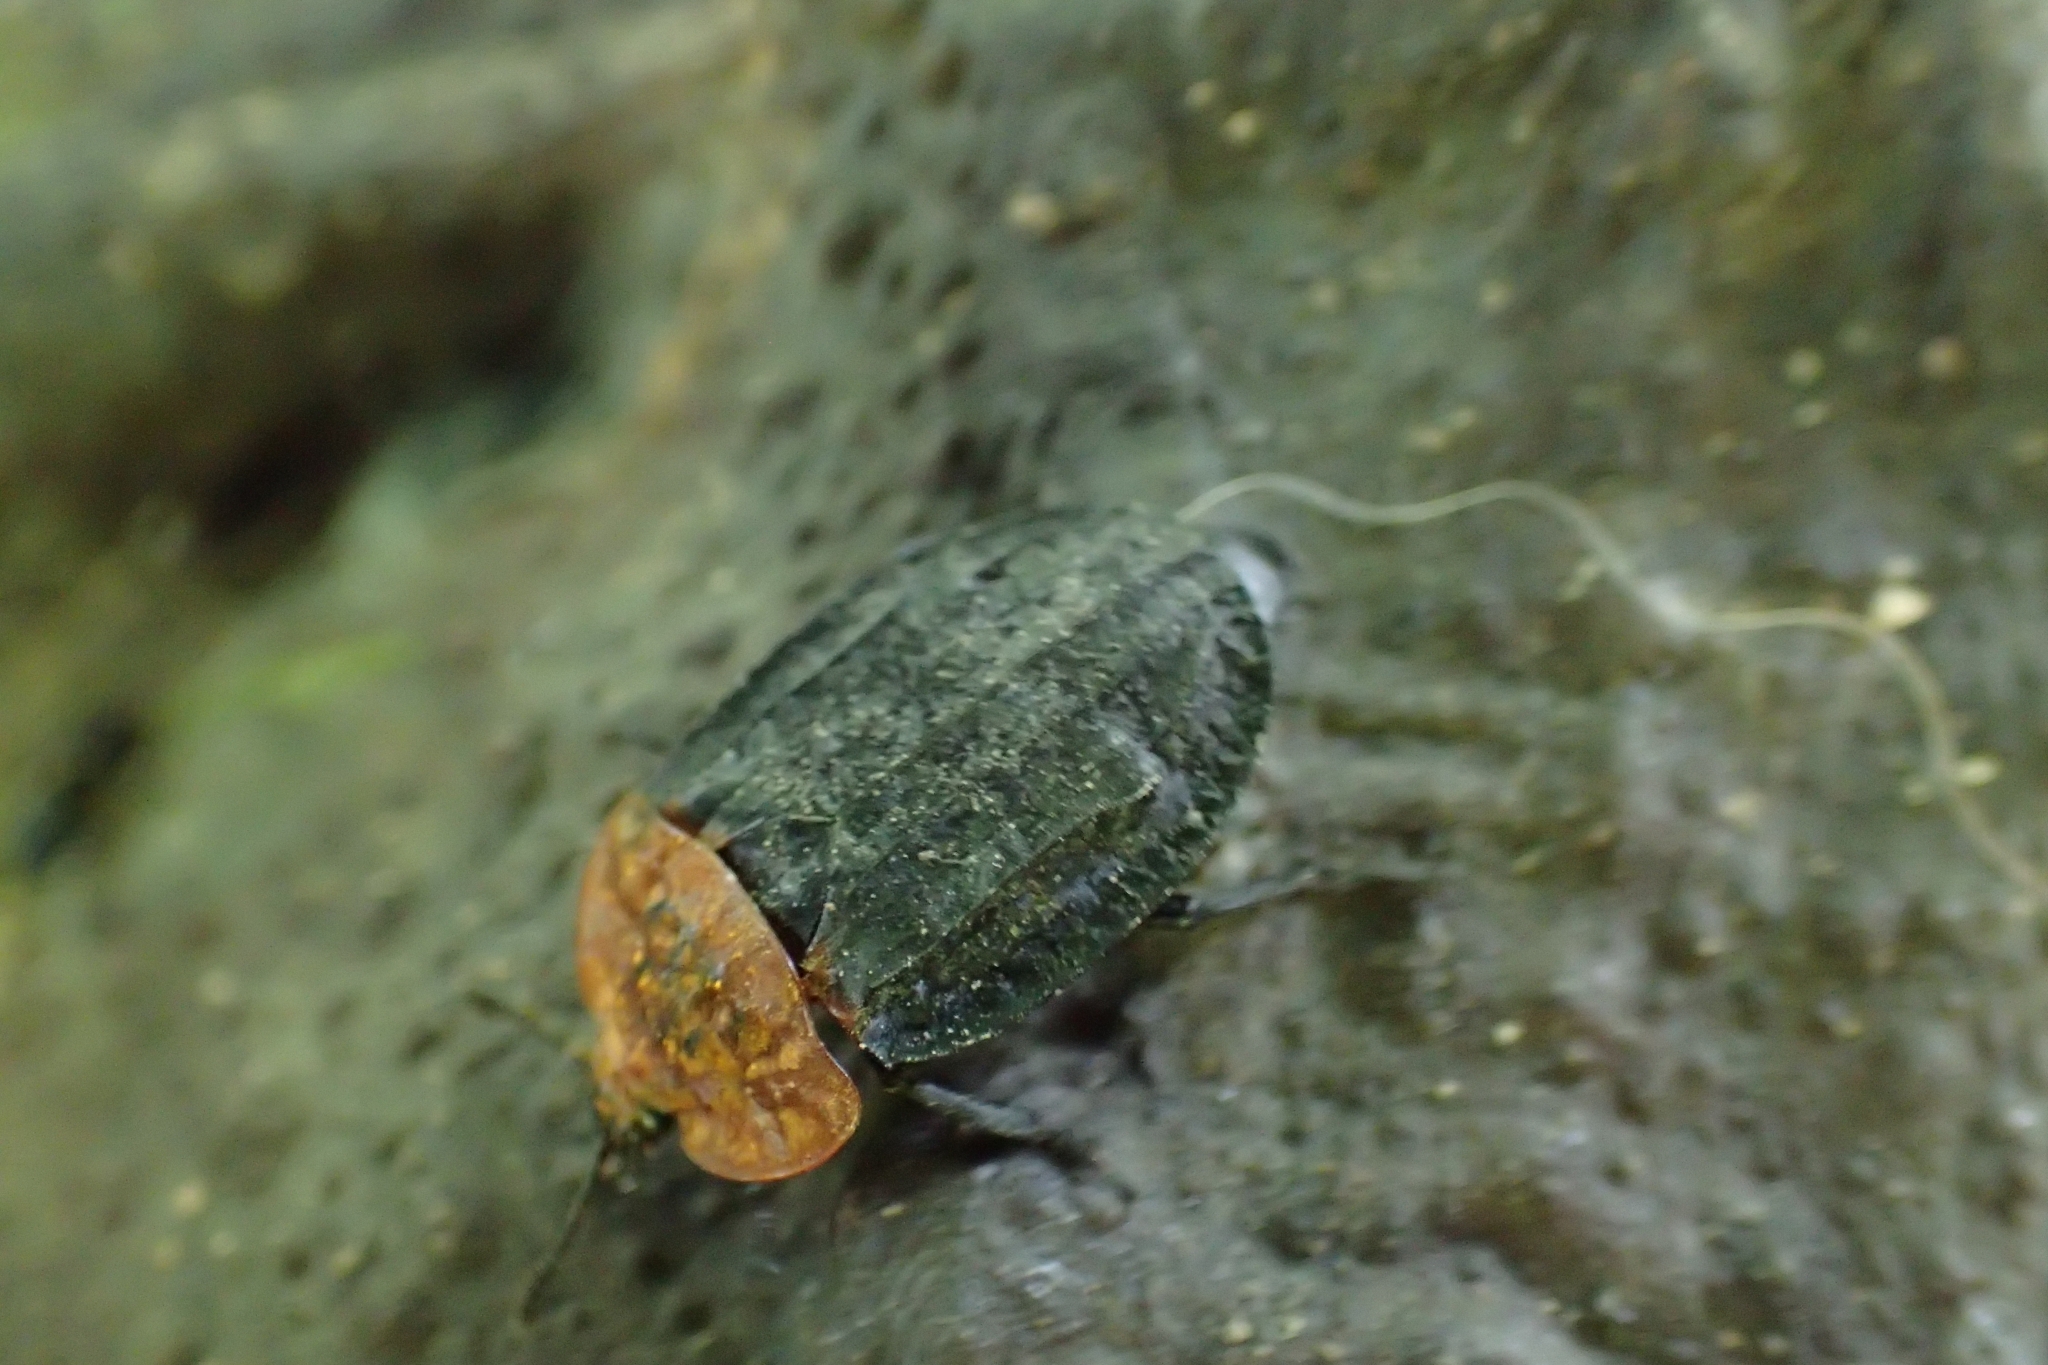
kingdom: Animalia
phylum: Arthropoda
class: Insecta
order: Coleoptera
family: Staphylinidae
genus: Oiceoptoma
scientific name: Oiceoptoma thoracicum
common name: Red-breasted carrion beetle
